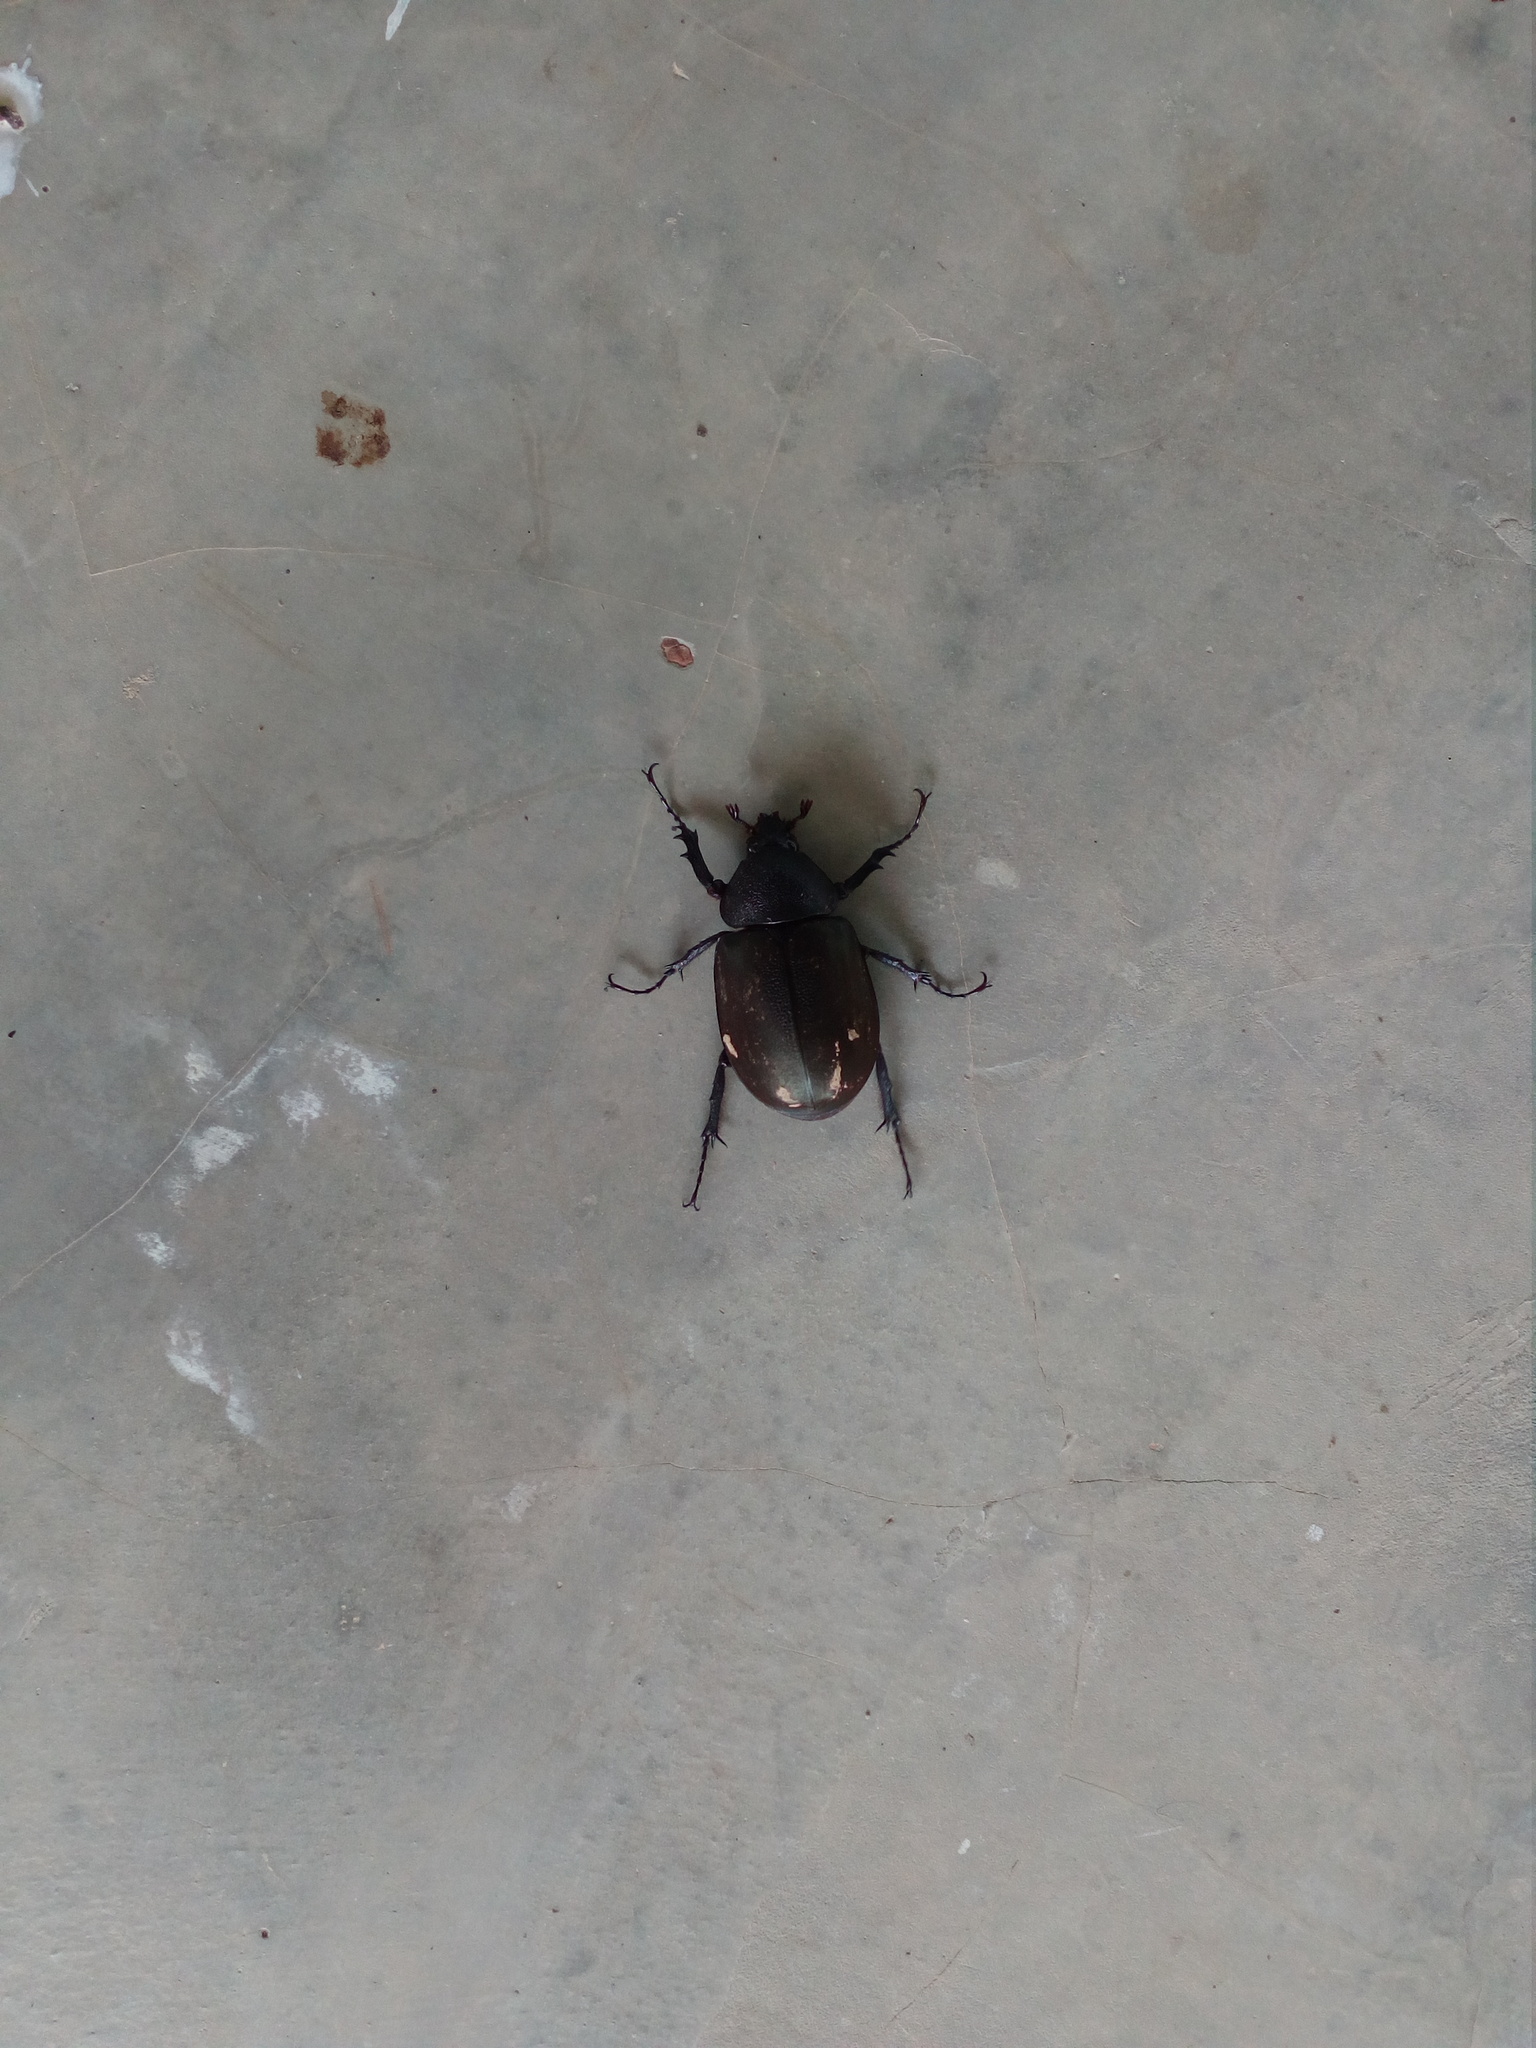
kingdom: Animalia
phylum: Arthropoda
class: Insecta
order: Coleoptera
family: Scarabaeidae
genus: Chalcosoma
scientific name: Chalcosoma moellenkampi
